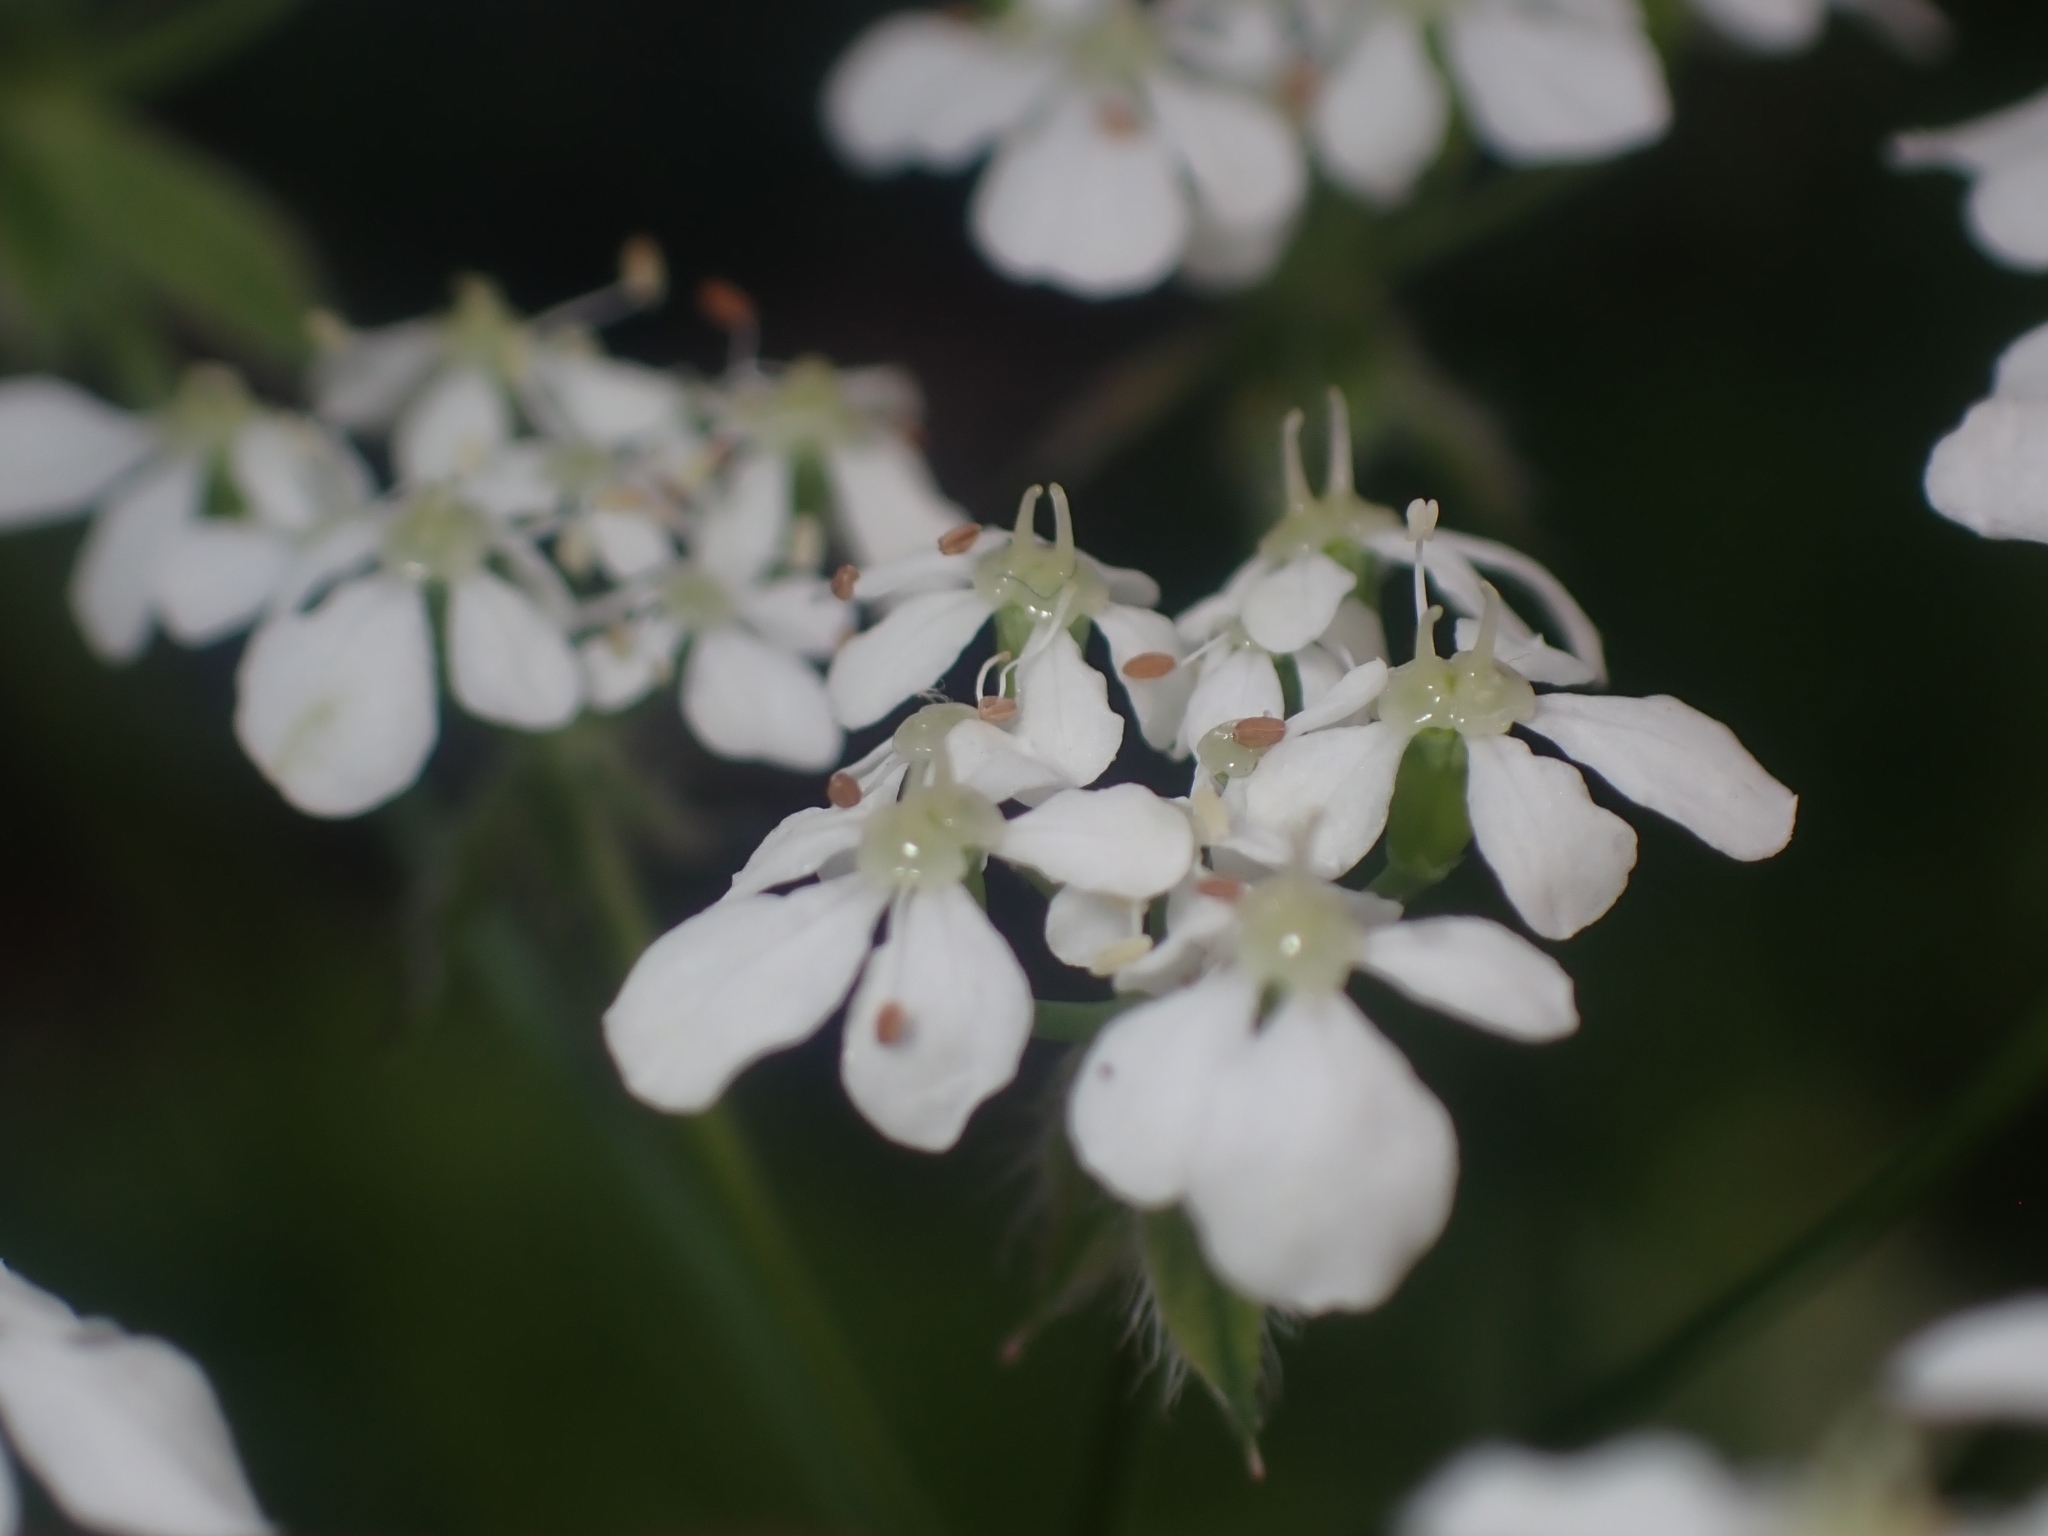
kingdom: Plantae
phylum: Tracheophyta
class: Magnoliopsida
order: Apiales
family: Apiaceae
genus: Anthriscus
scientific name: Anthriscus sylvestris
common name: Cow parsley
